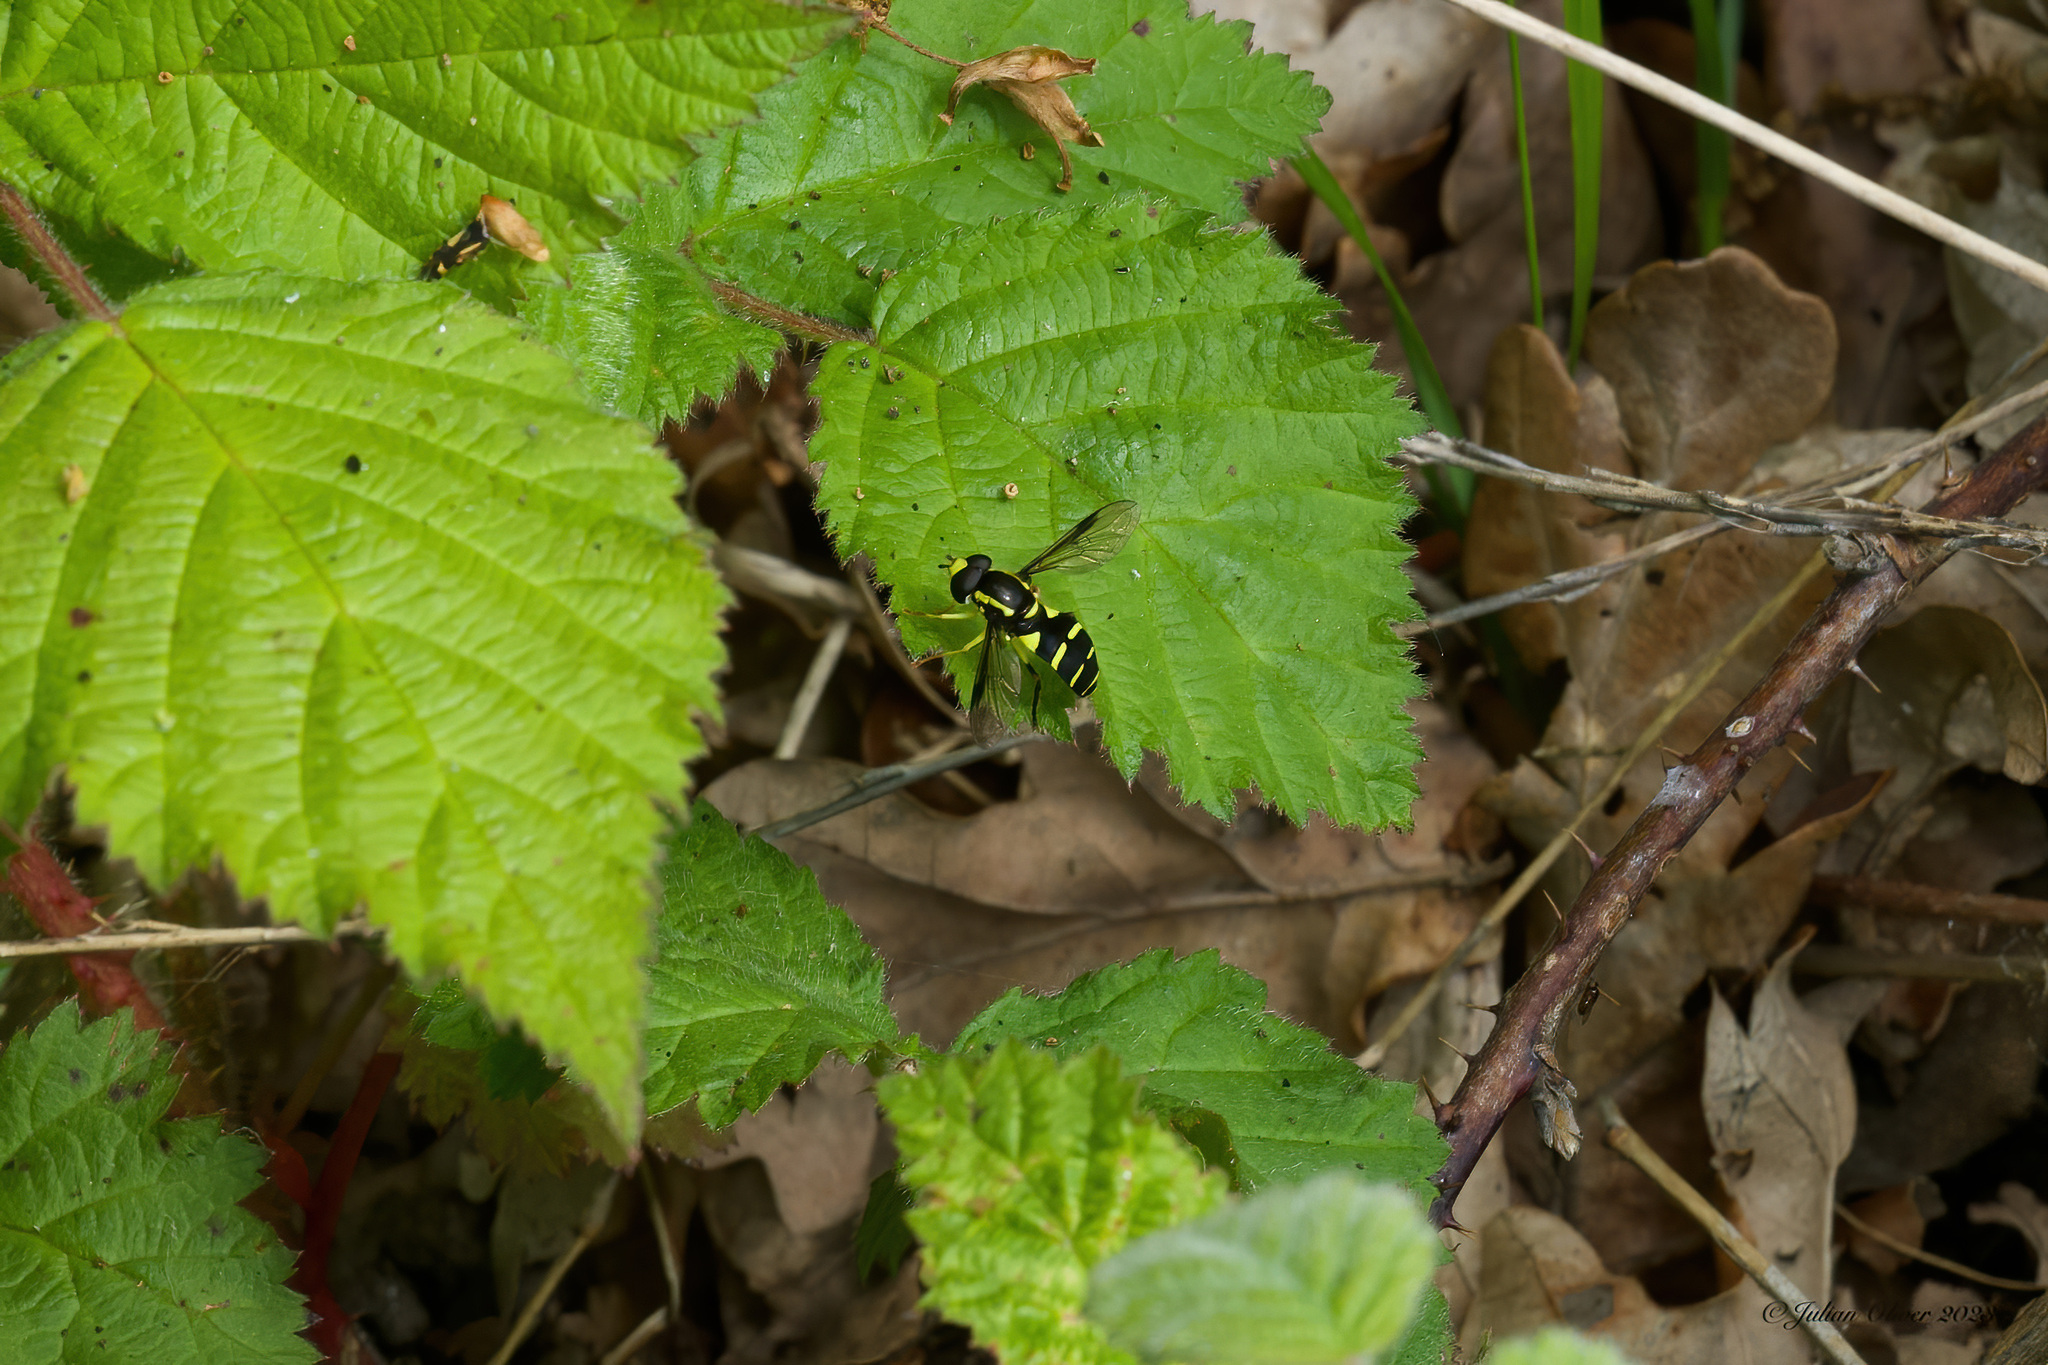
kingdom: Animalia
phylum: Arthropoda
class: Insecta
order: Diptera
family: Syrphidae
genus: Philhelius
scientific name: Philhelius pedissequum
